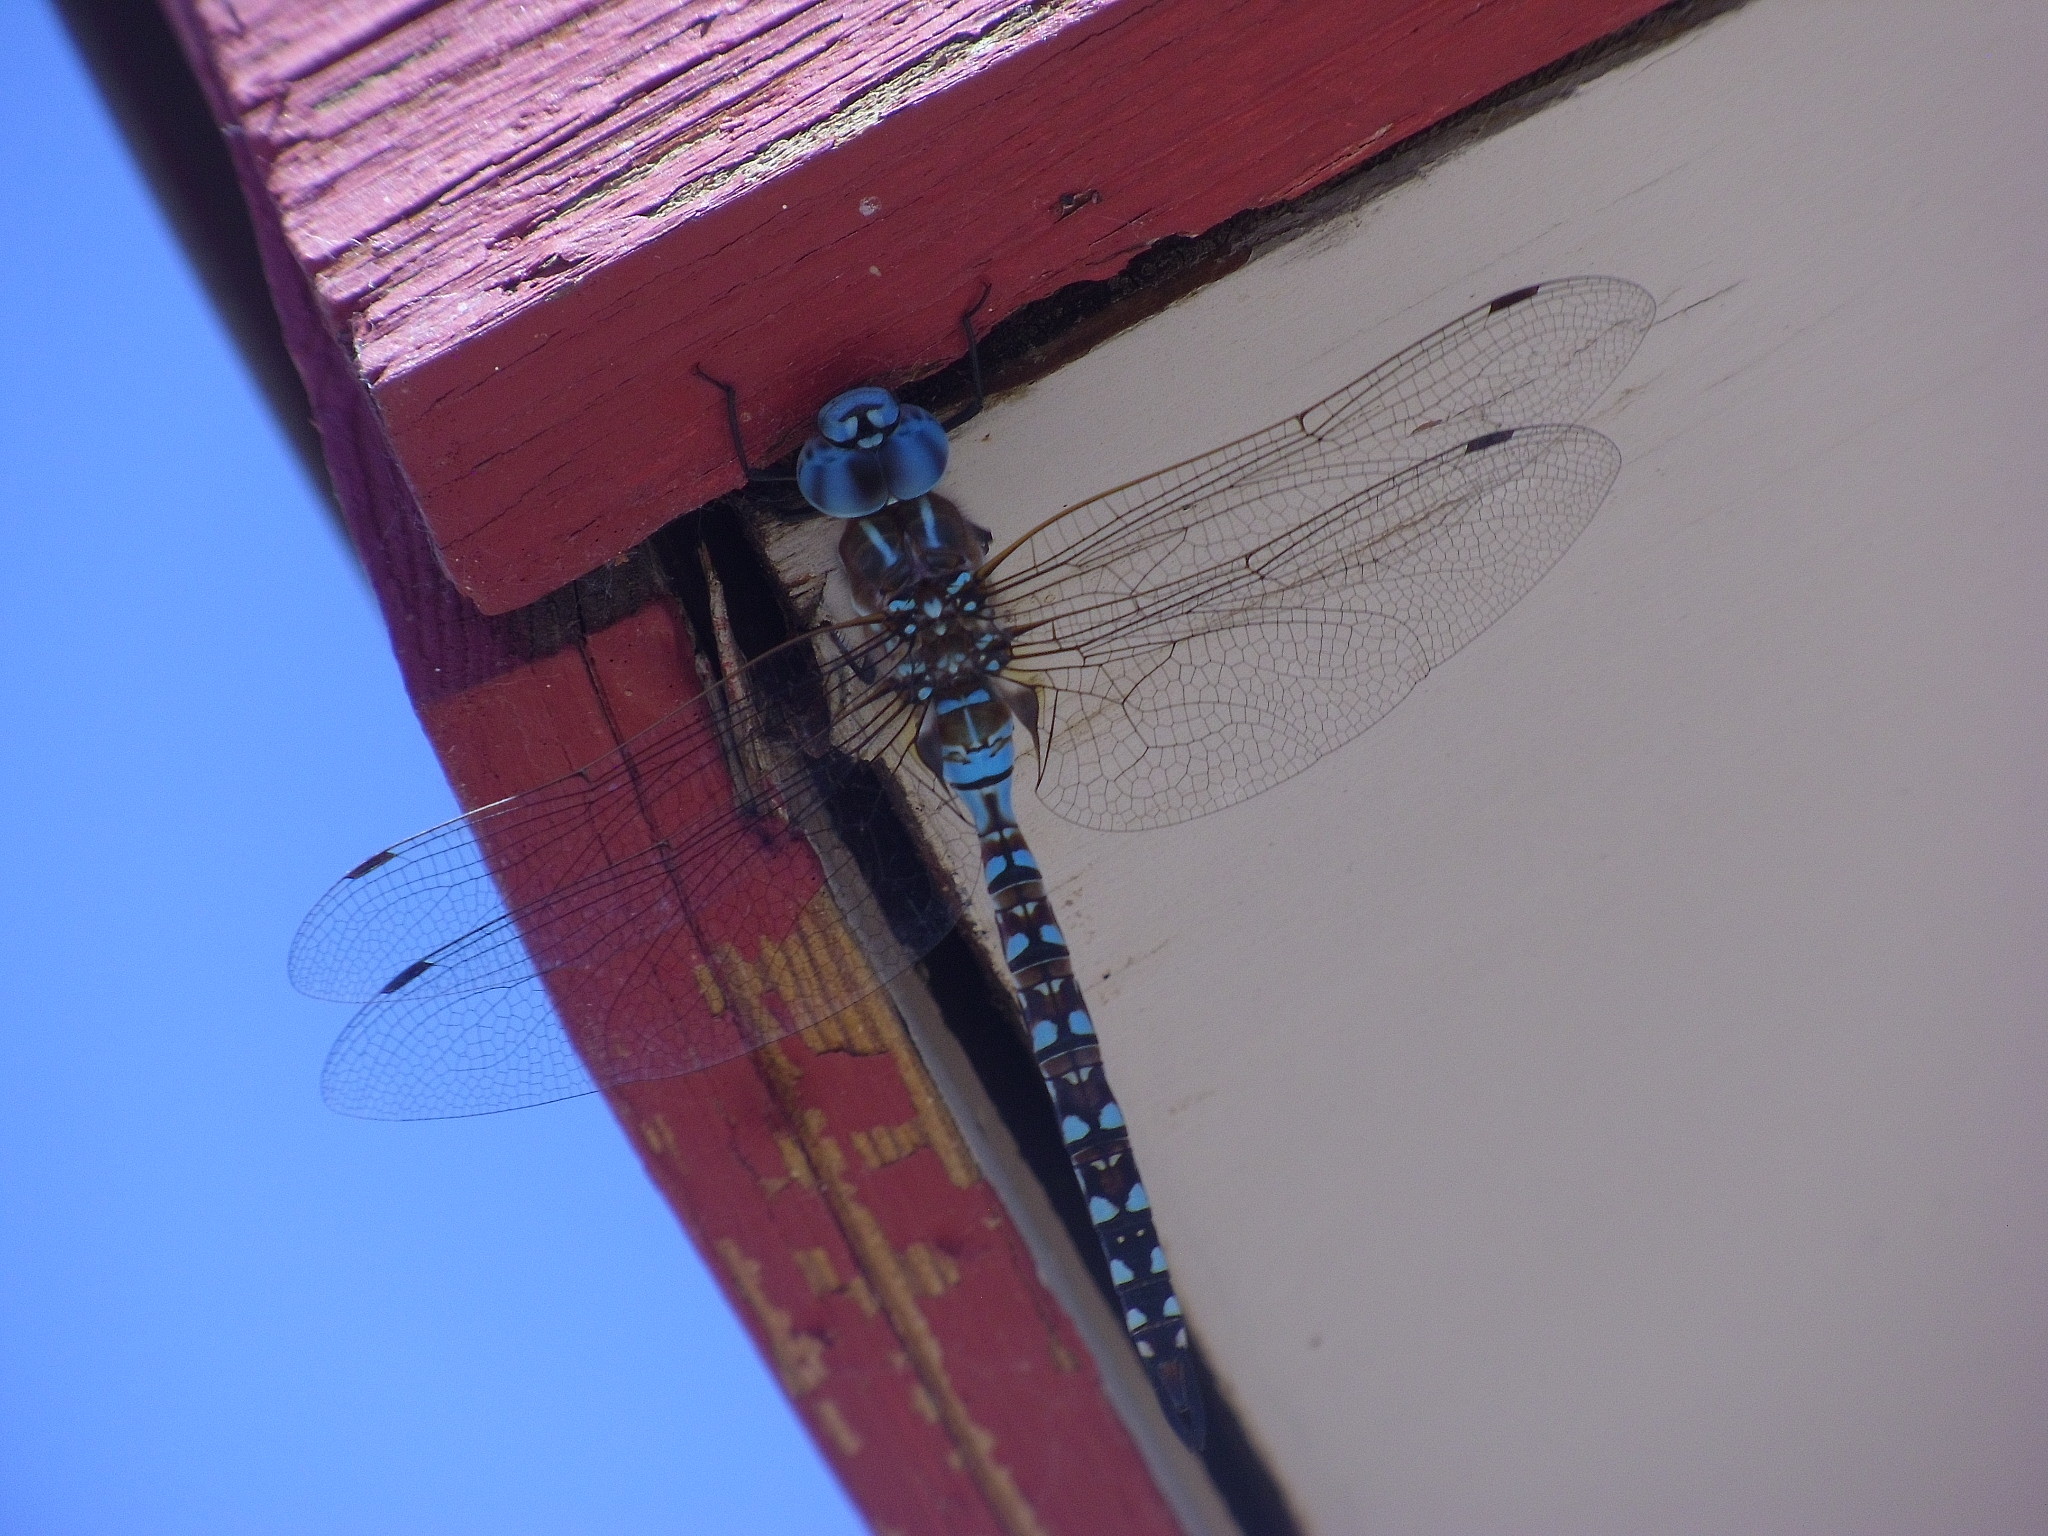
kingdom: Animalia
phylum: Arthropoda
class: Insecta
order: Odonata
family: Aeshnidae
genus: Rhionaeschna
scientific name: Rhionaeschna multicolor
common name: Blue-eyed darner
